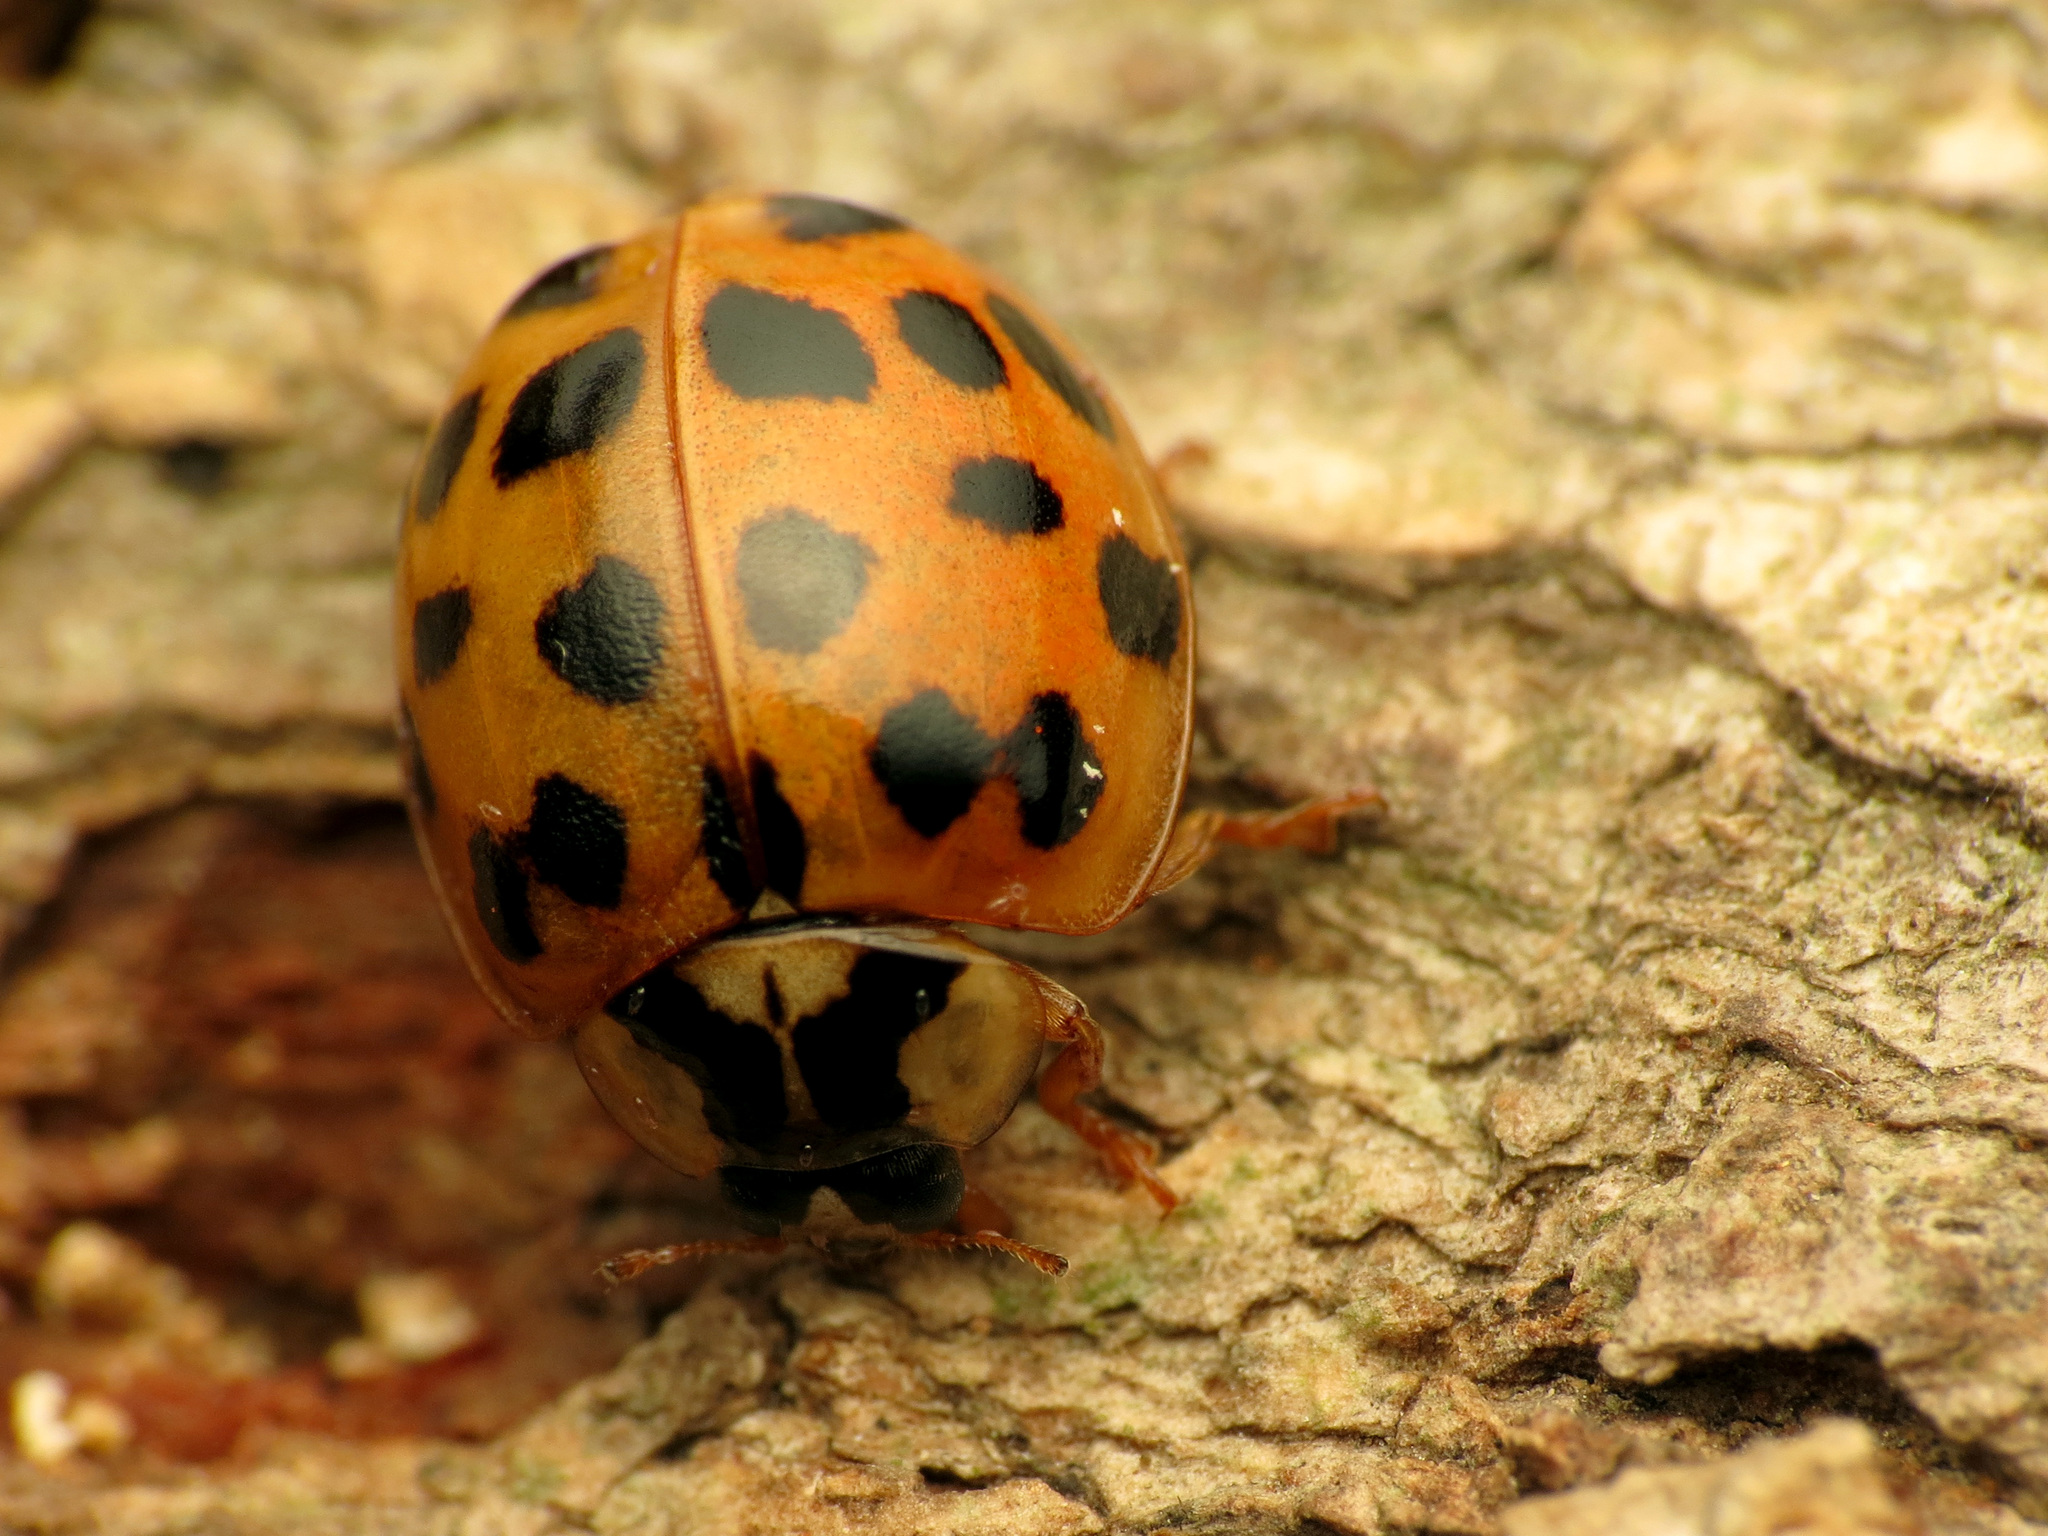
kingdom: Animalia
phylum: Arthropoda
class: Insecta
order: Coleoptera
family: Coccinellidae
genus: Harmonia
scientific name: Harmonia axyridis
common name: Harlequin ladybird
